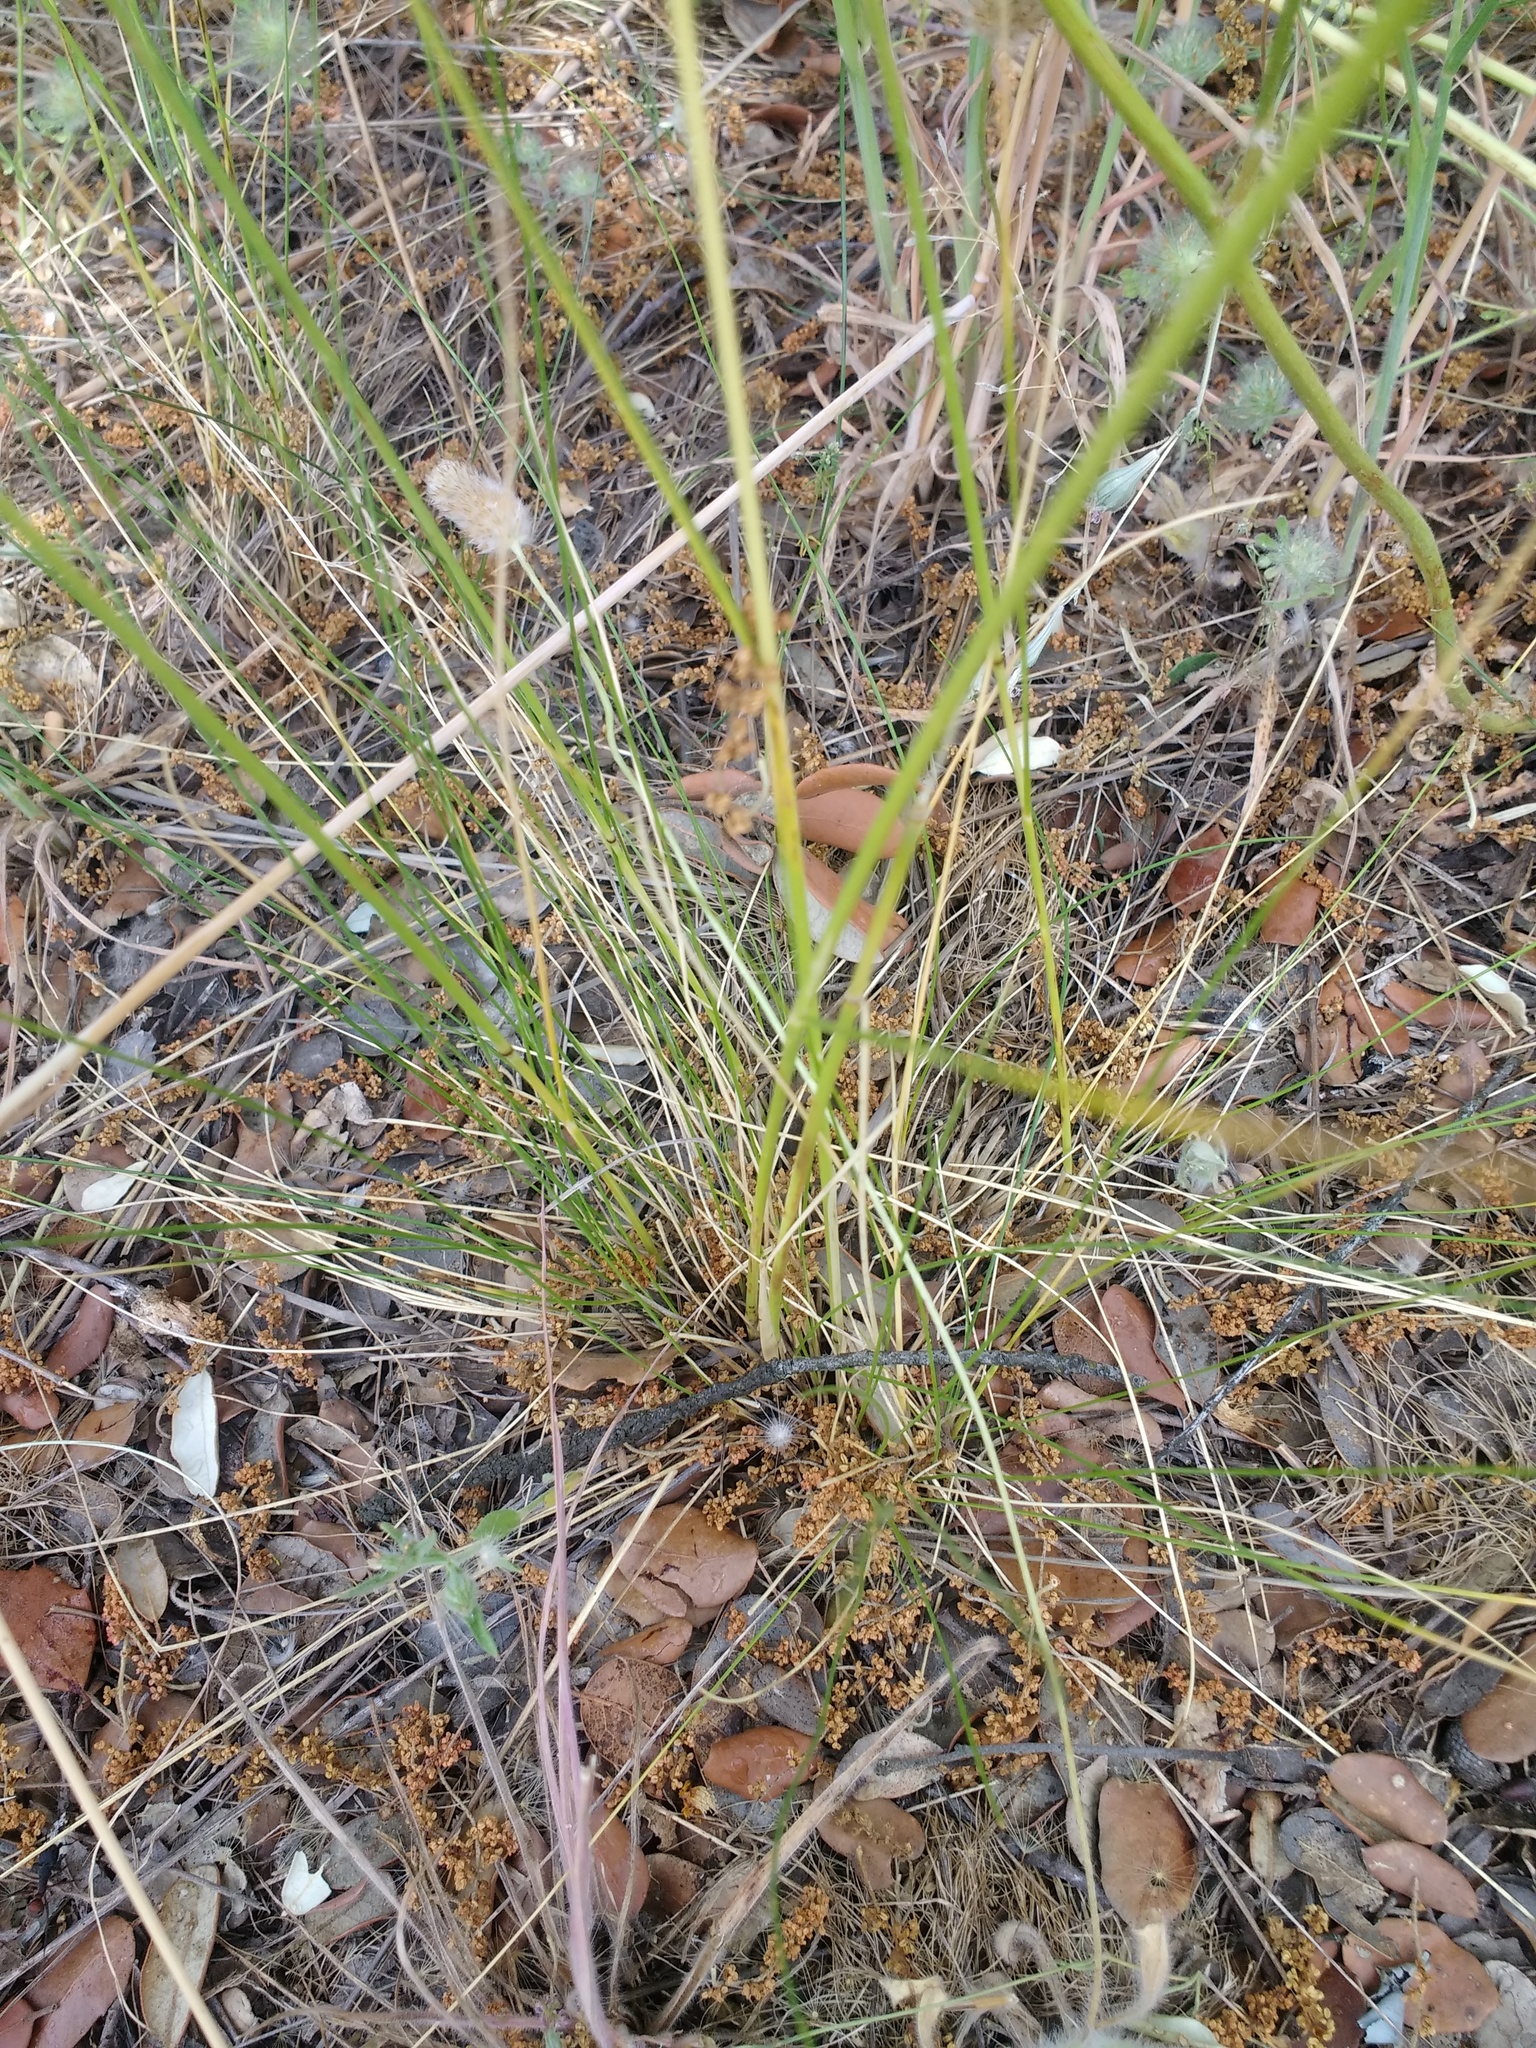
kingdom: Plantae
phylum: Tracheophyta
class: Liliopsida
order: Poales
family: Poaceae
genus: Stipa
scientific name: Stipa lagascae
